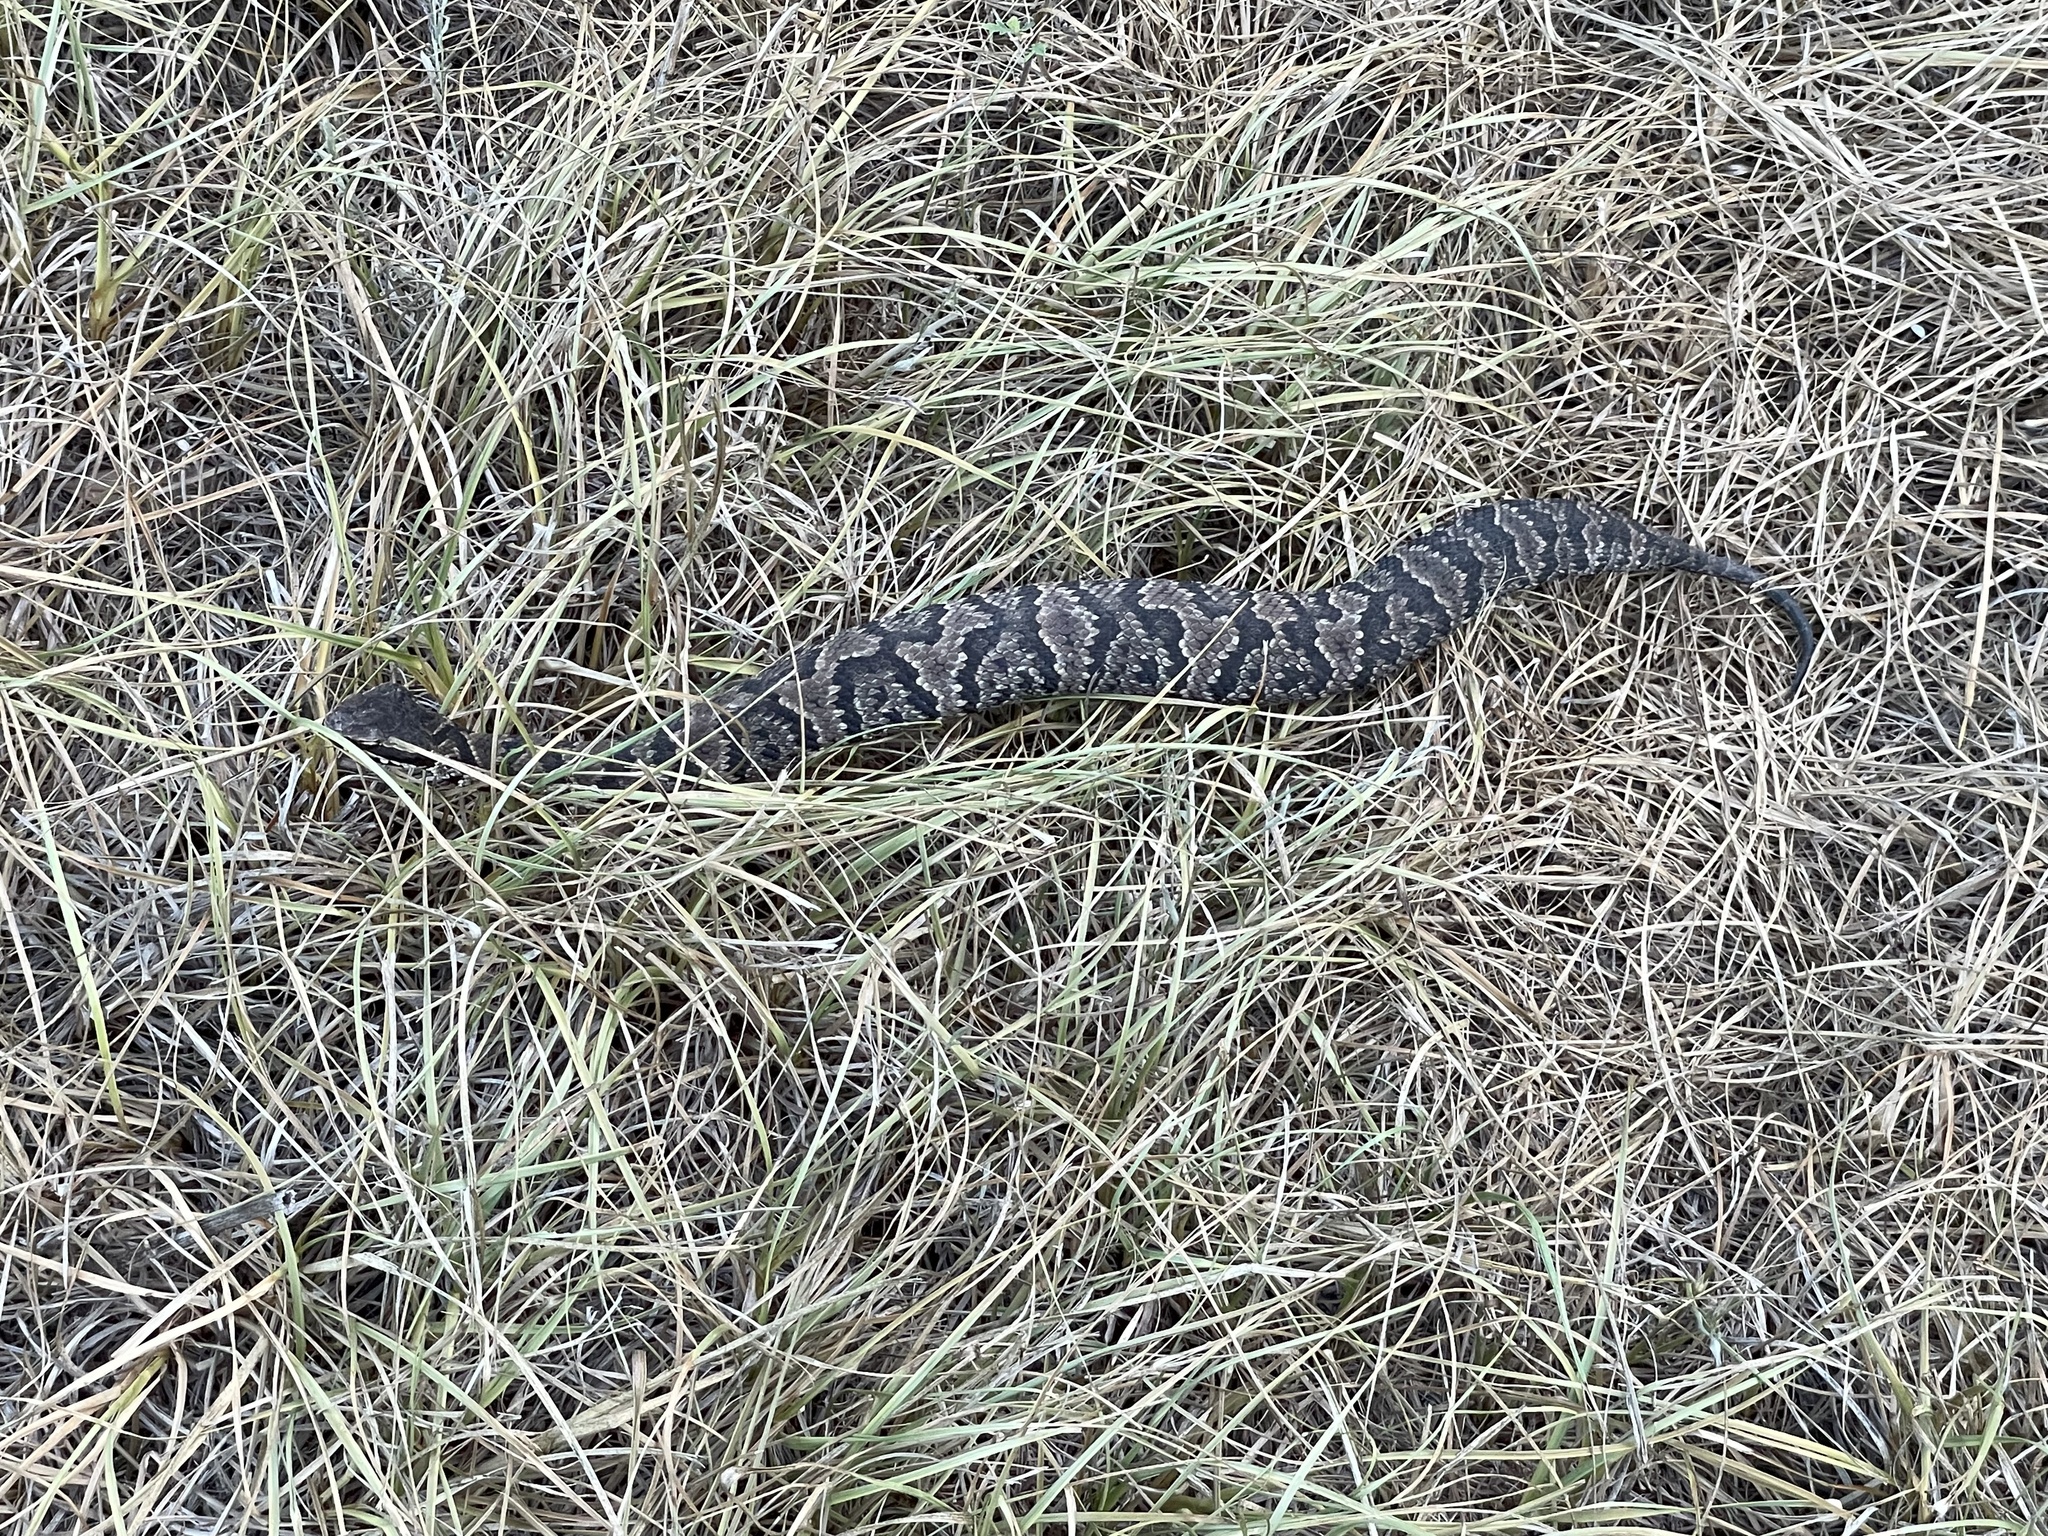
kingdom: Animalia
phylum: Chordata
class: Squamata
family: Viperidae
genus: Agkistrodon
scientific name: Agkistrodon piscivorus
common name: Cottonmouth
